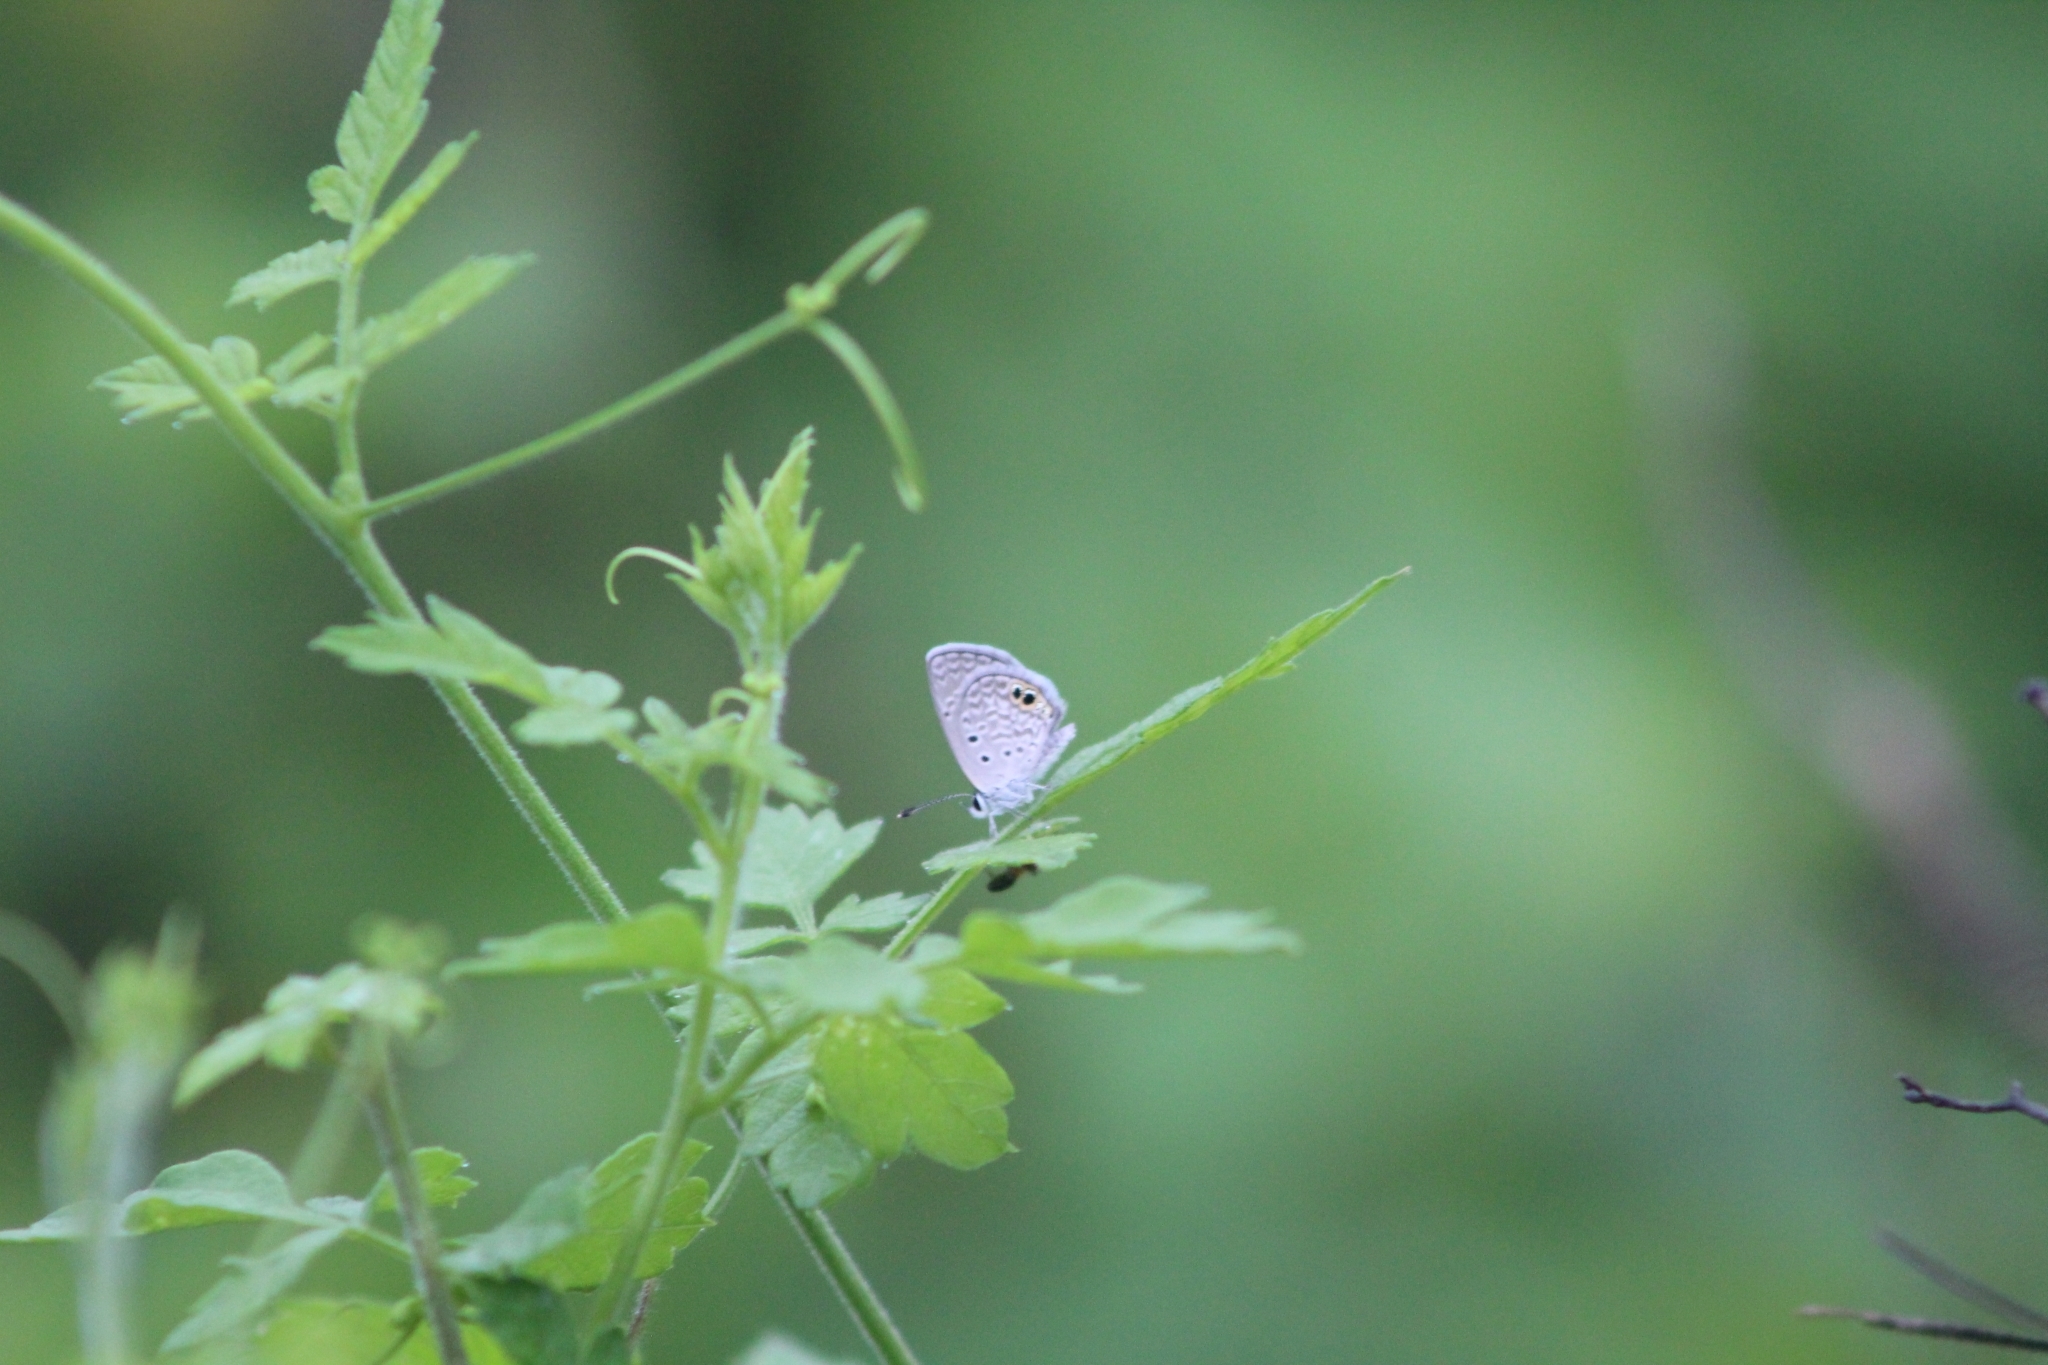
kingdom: Animalia
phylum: Arthropoda
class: Insecta
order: Lepidoptera
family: Lycaenidae
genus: Hemiargus
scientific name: Hemiargus ceraunus
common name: Ceraunus blue
